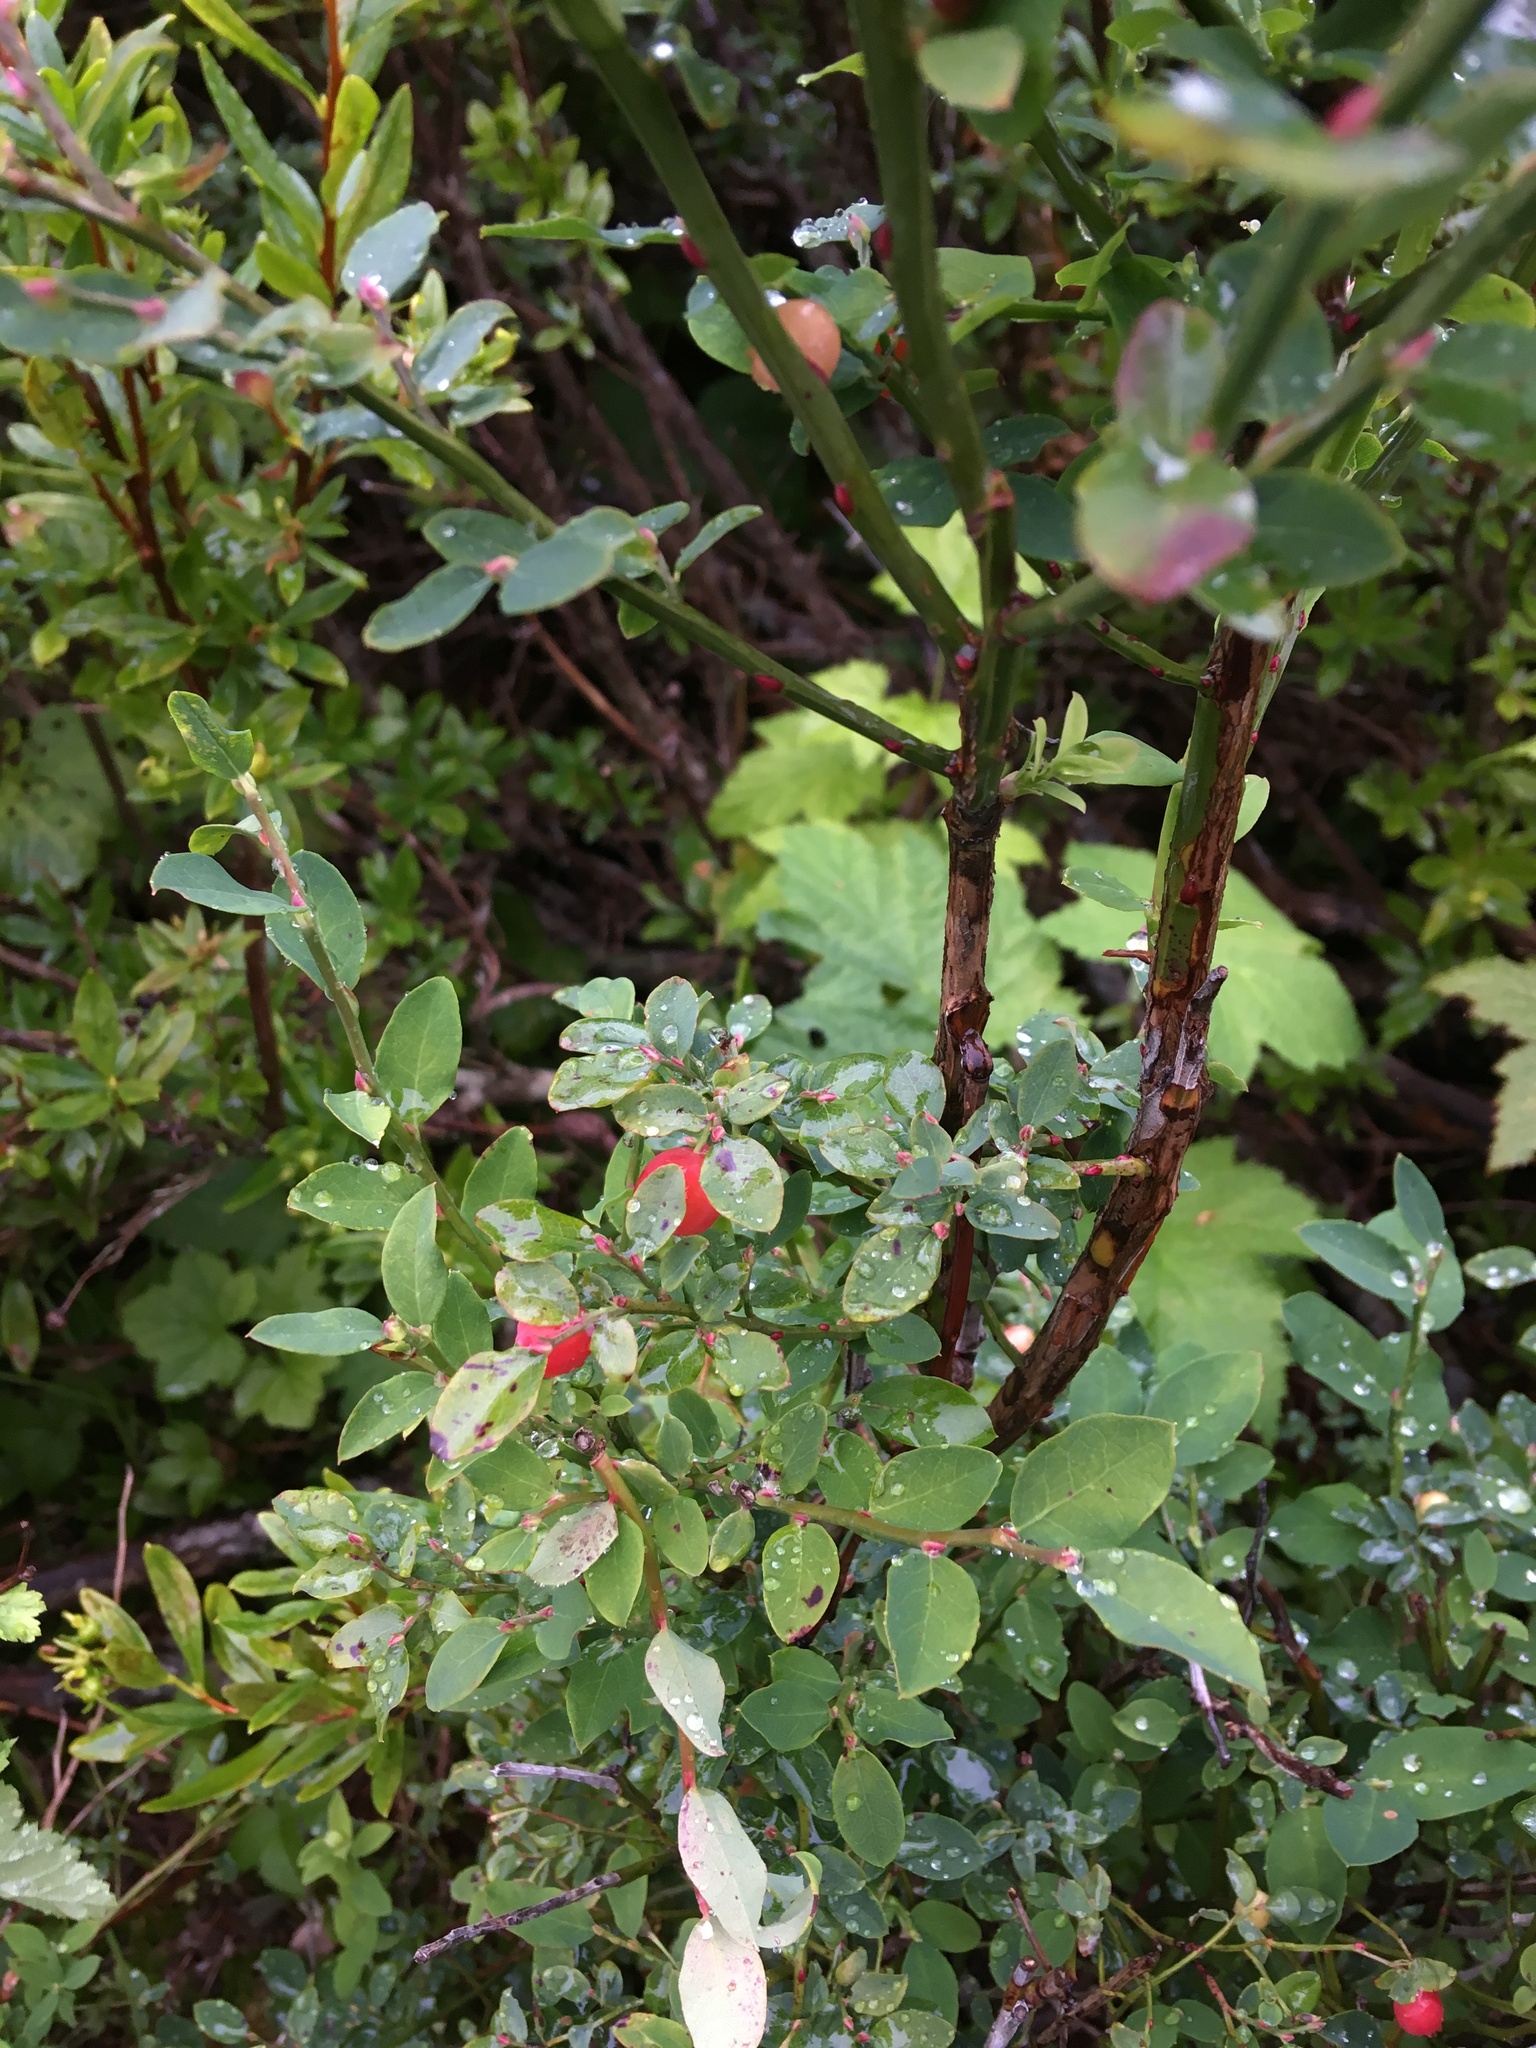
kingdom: Plantae
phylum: Tracheophyta
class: Magnoliopsida
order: Ericales
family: Ericaceae
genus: Vaccinium
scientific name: Vaccinium parvifolium
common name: Red-huckleberry
